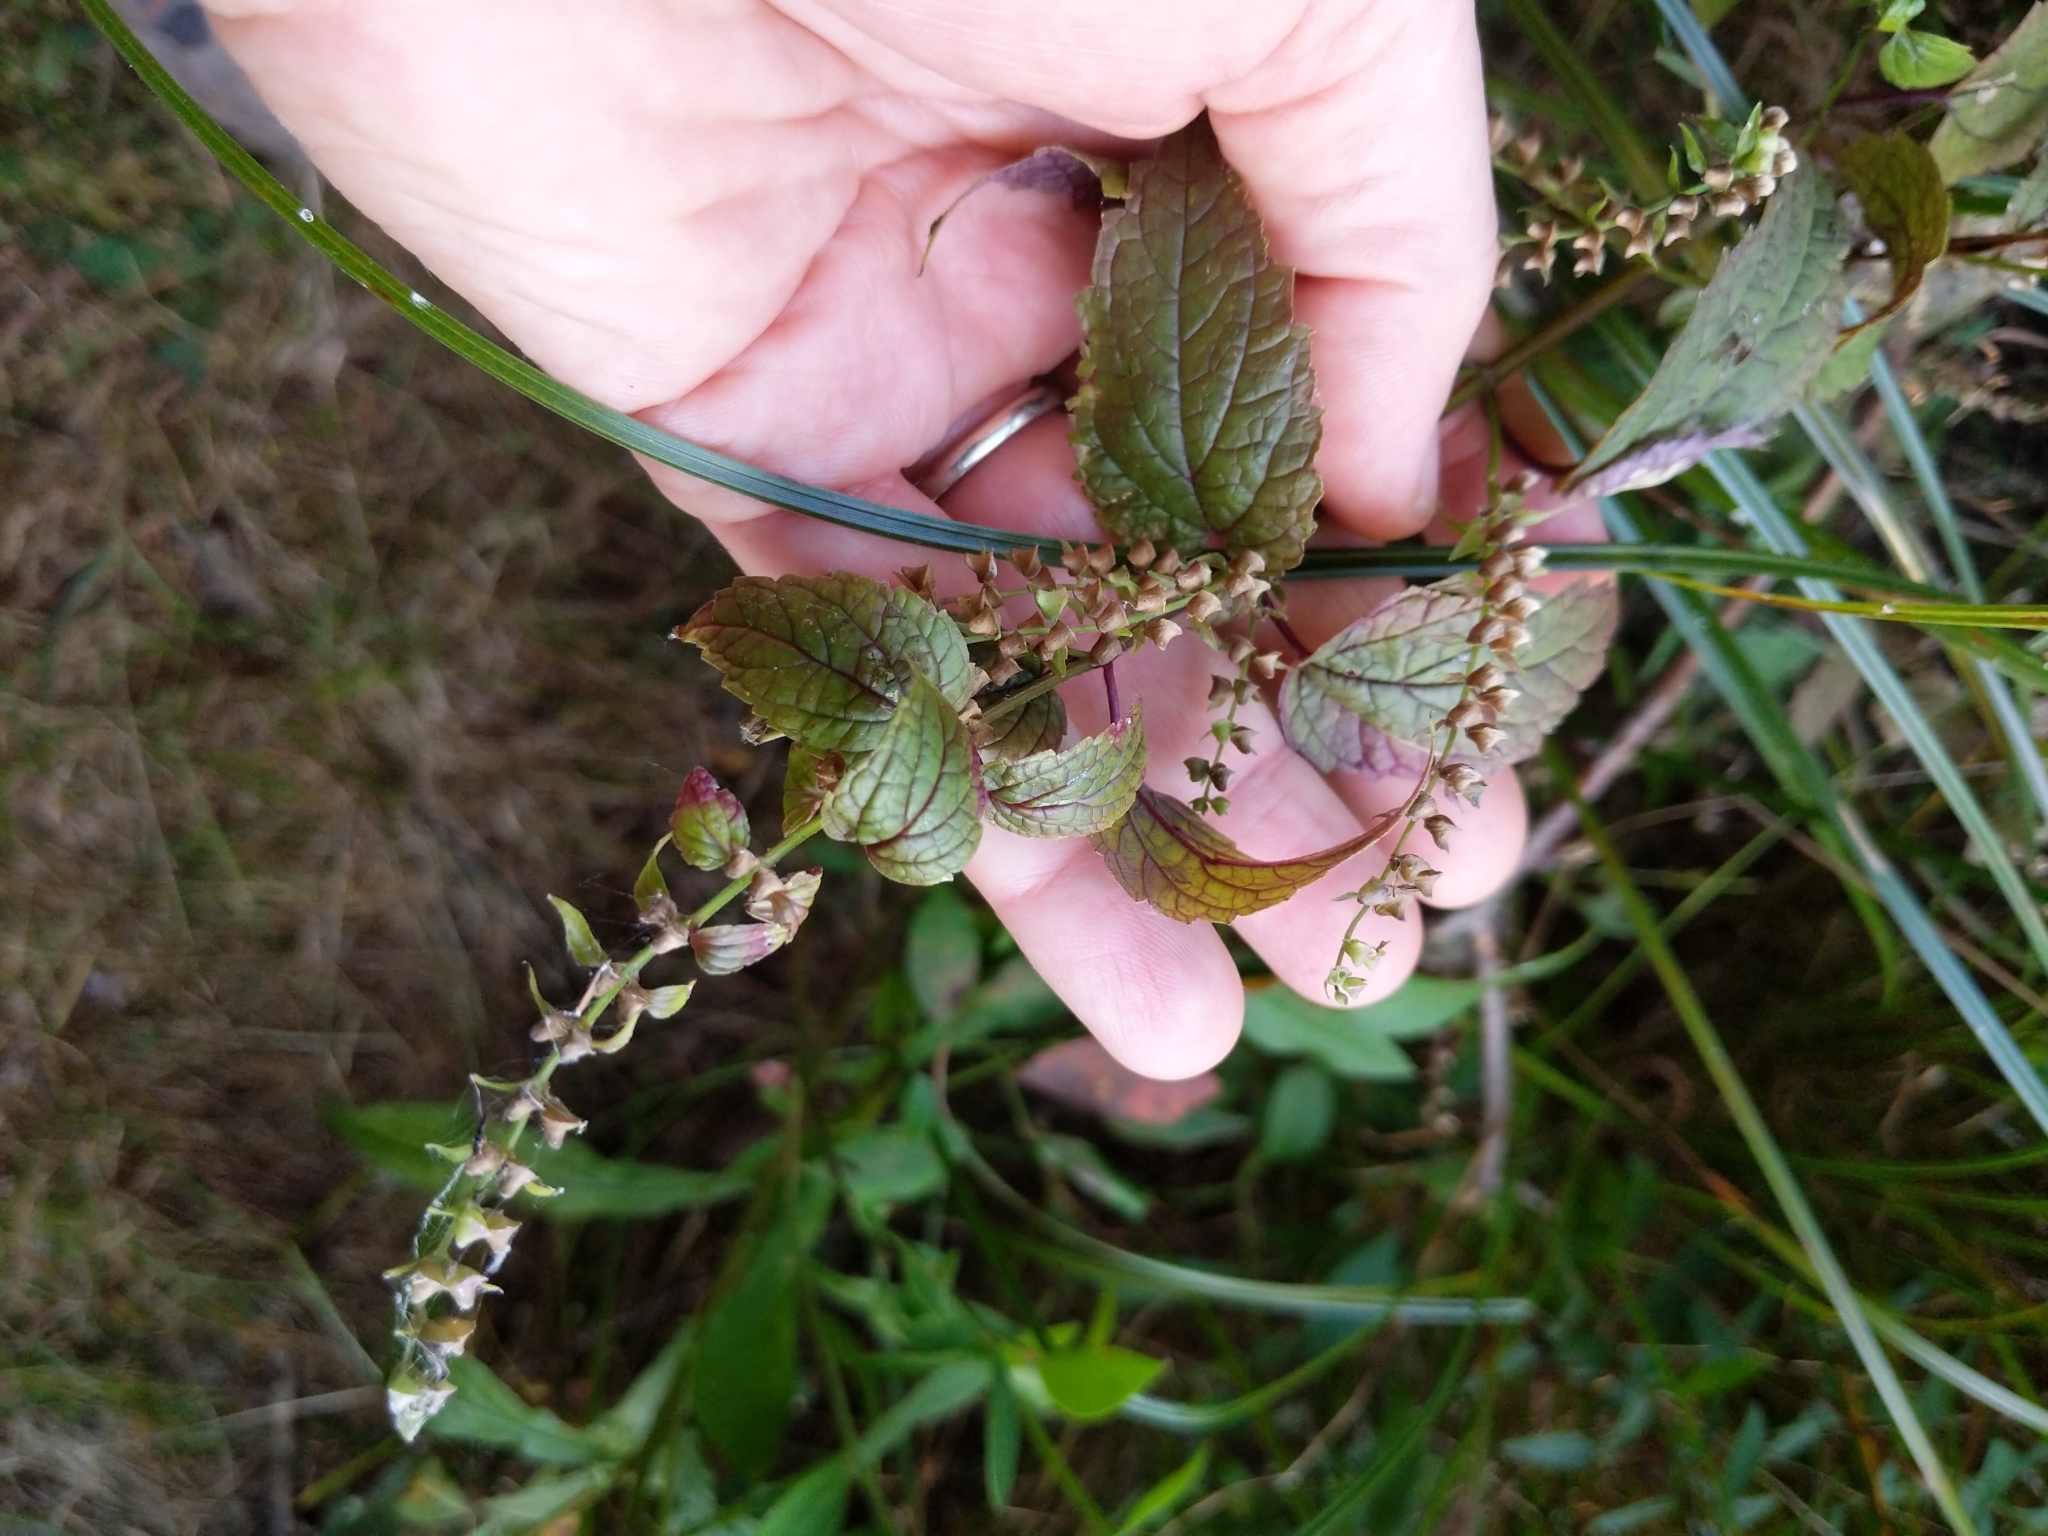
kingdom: Plantae
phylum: Tracheophyta
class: Magnoliopsida
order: Lamiales
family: Lamiaceae
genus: Scutellaria
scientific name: Scutellaria lateriflora
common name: Blue skullcap
